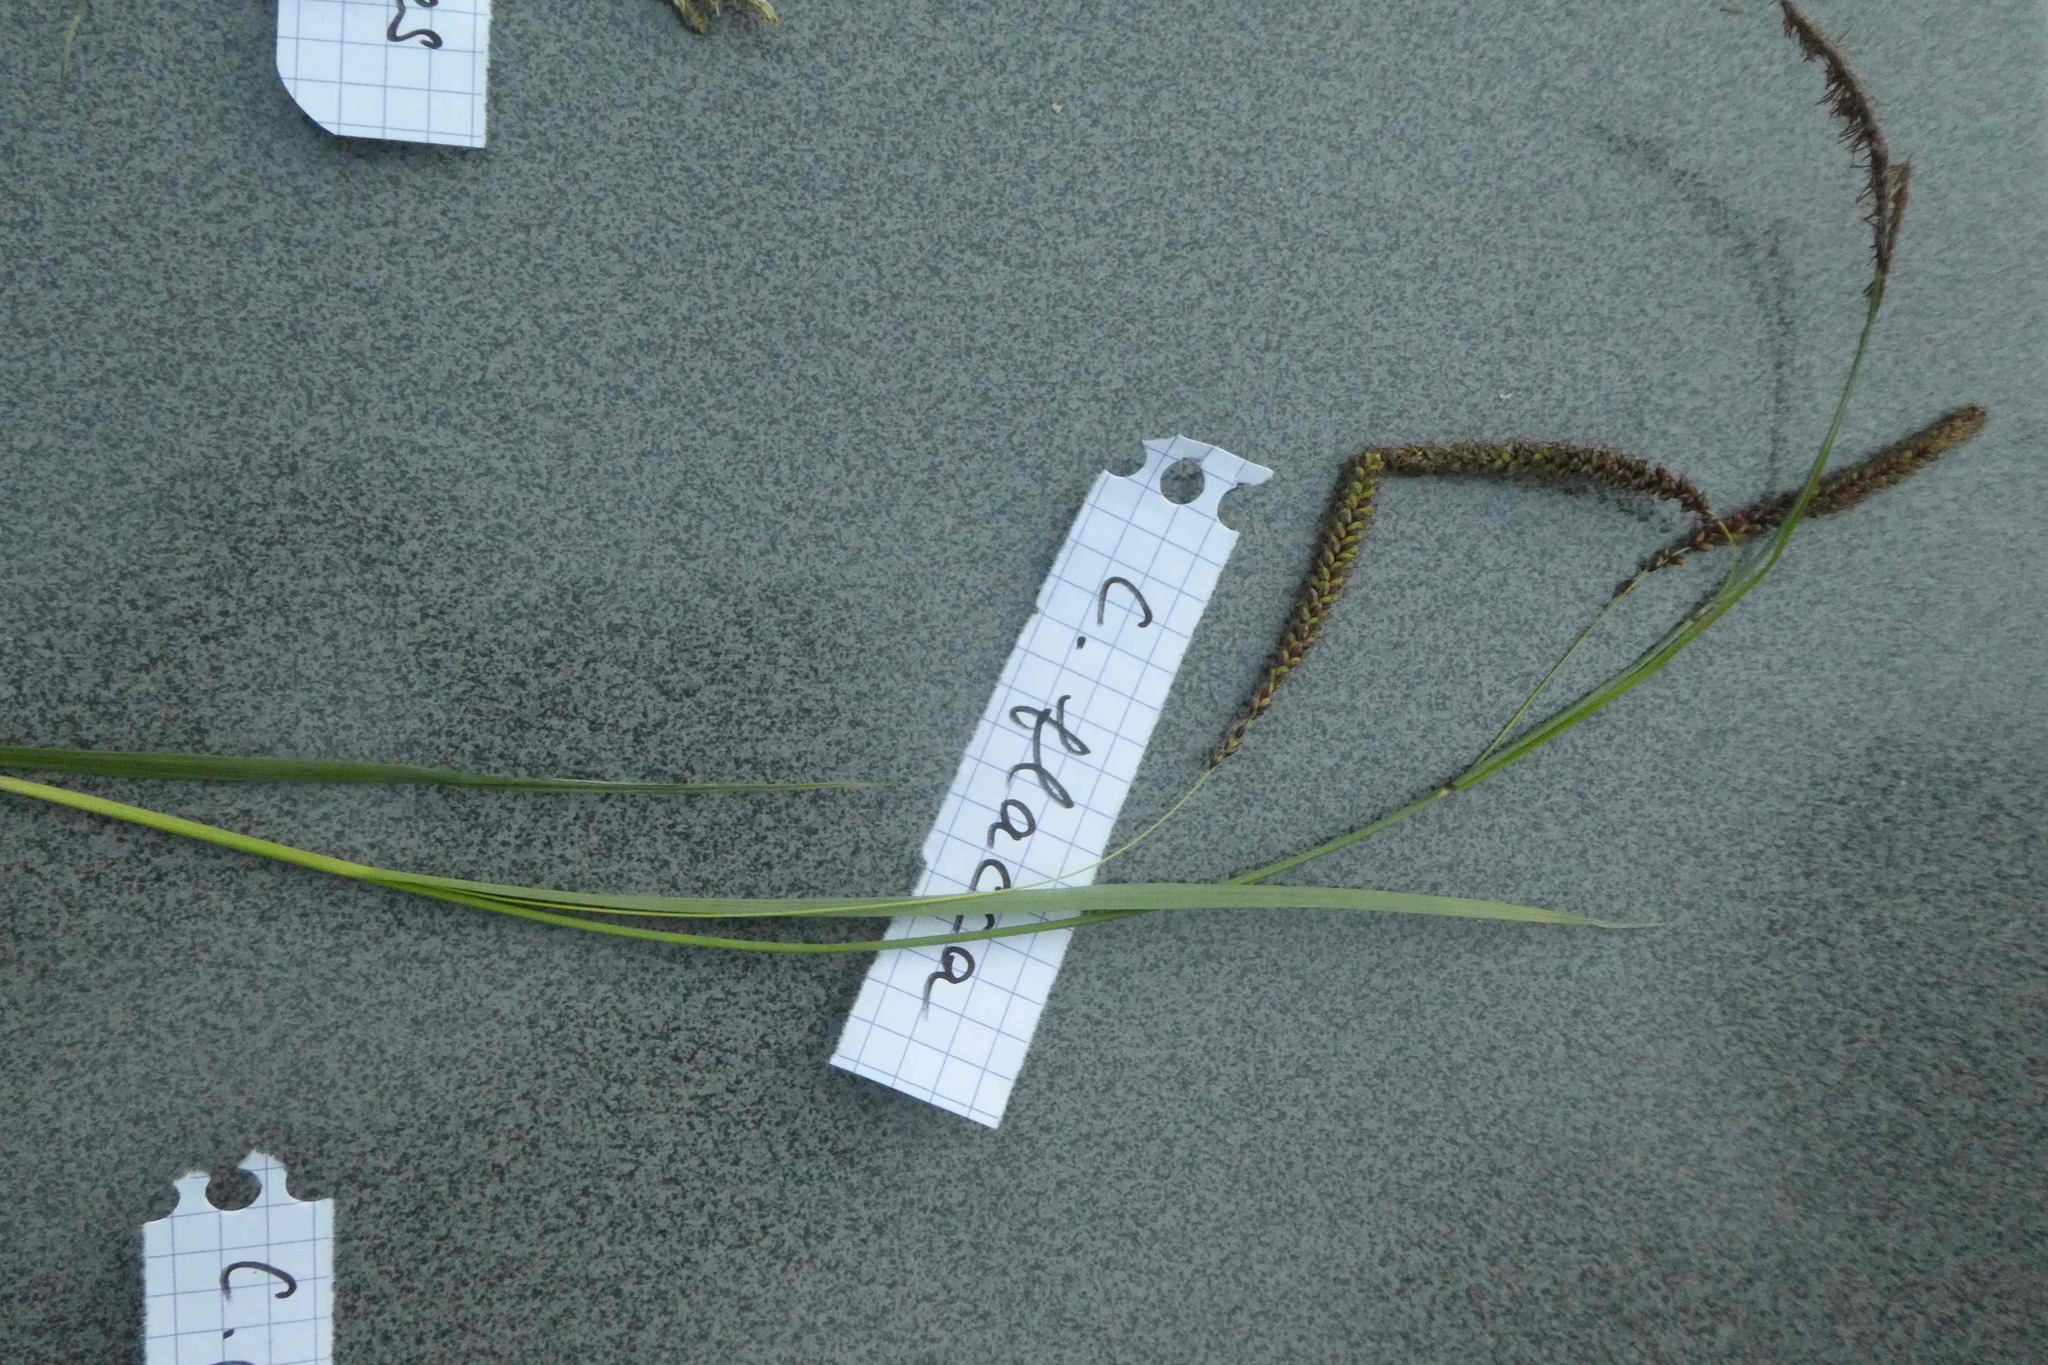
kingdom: Plantae
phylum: Tracheophyta
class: Liliopsida
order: Poales
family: Cyperaceae
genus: Carex
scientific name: Carex flacca
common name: Glaucous sedge
